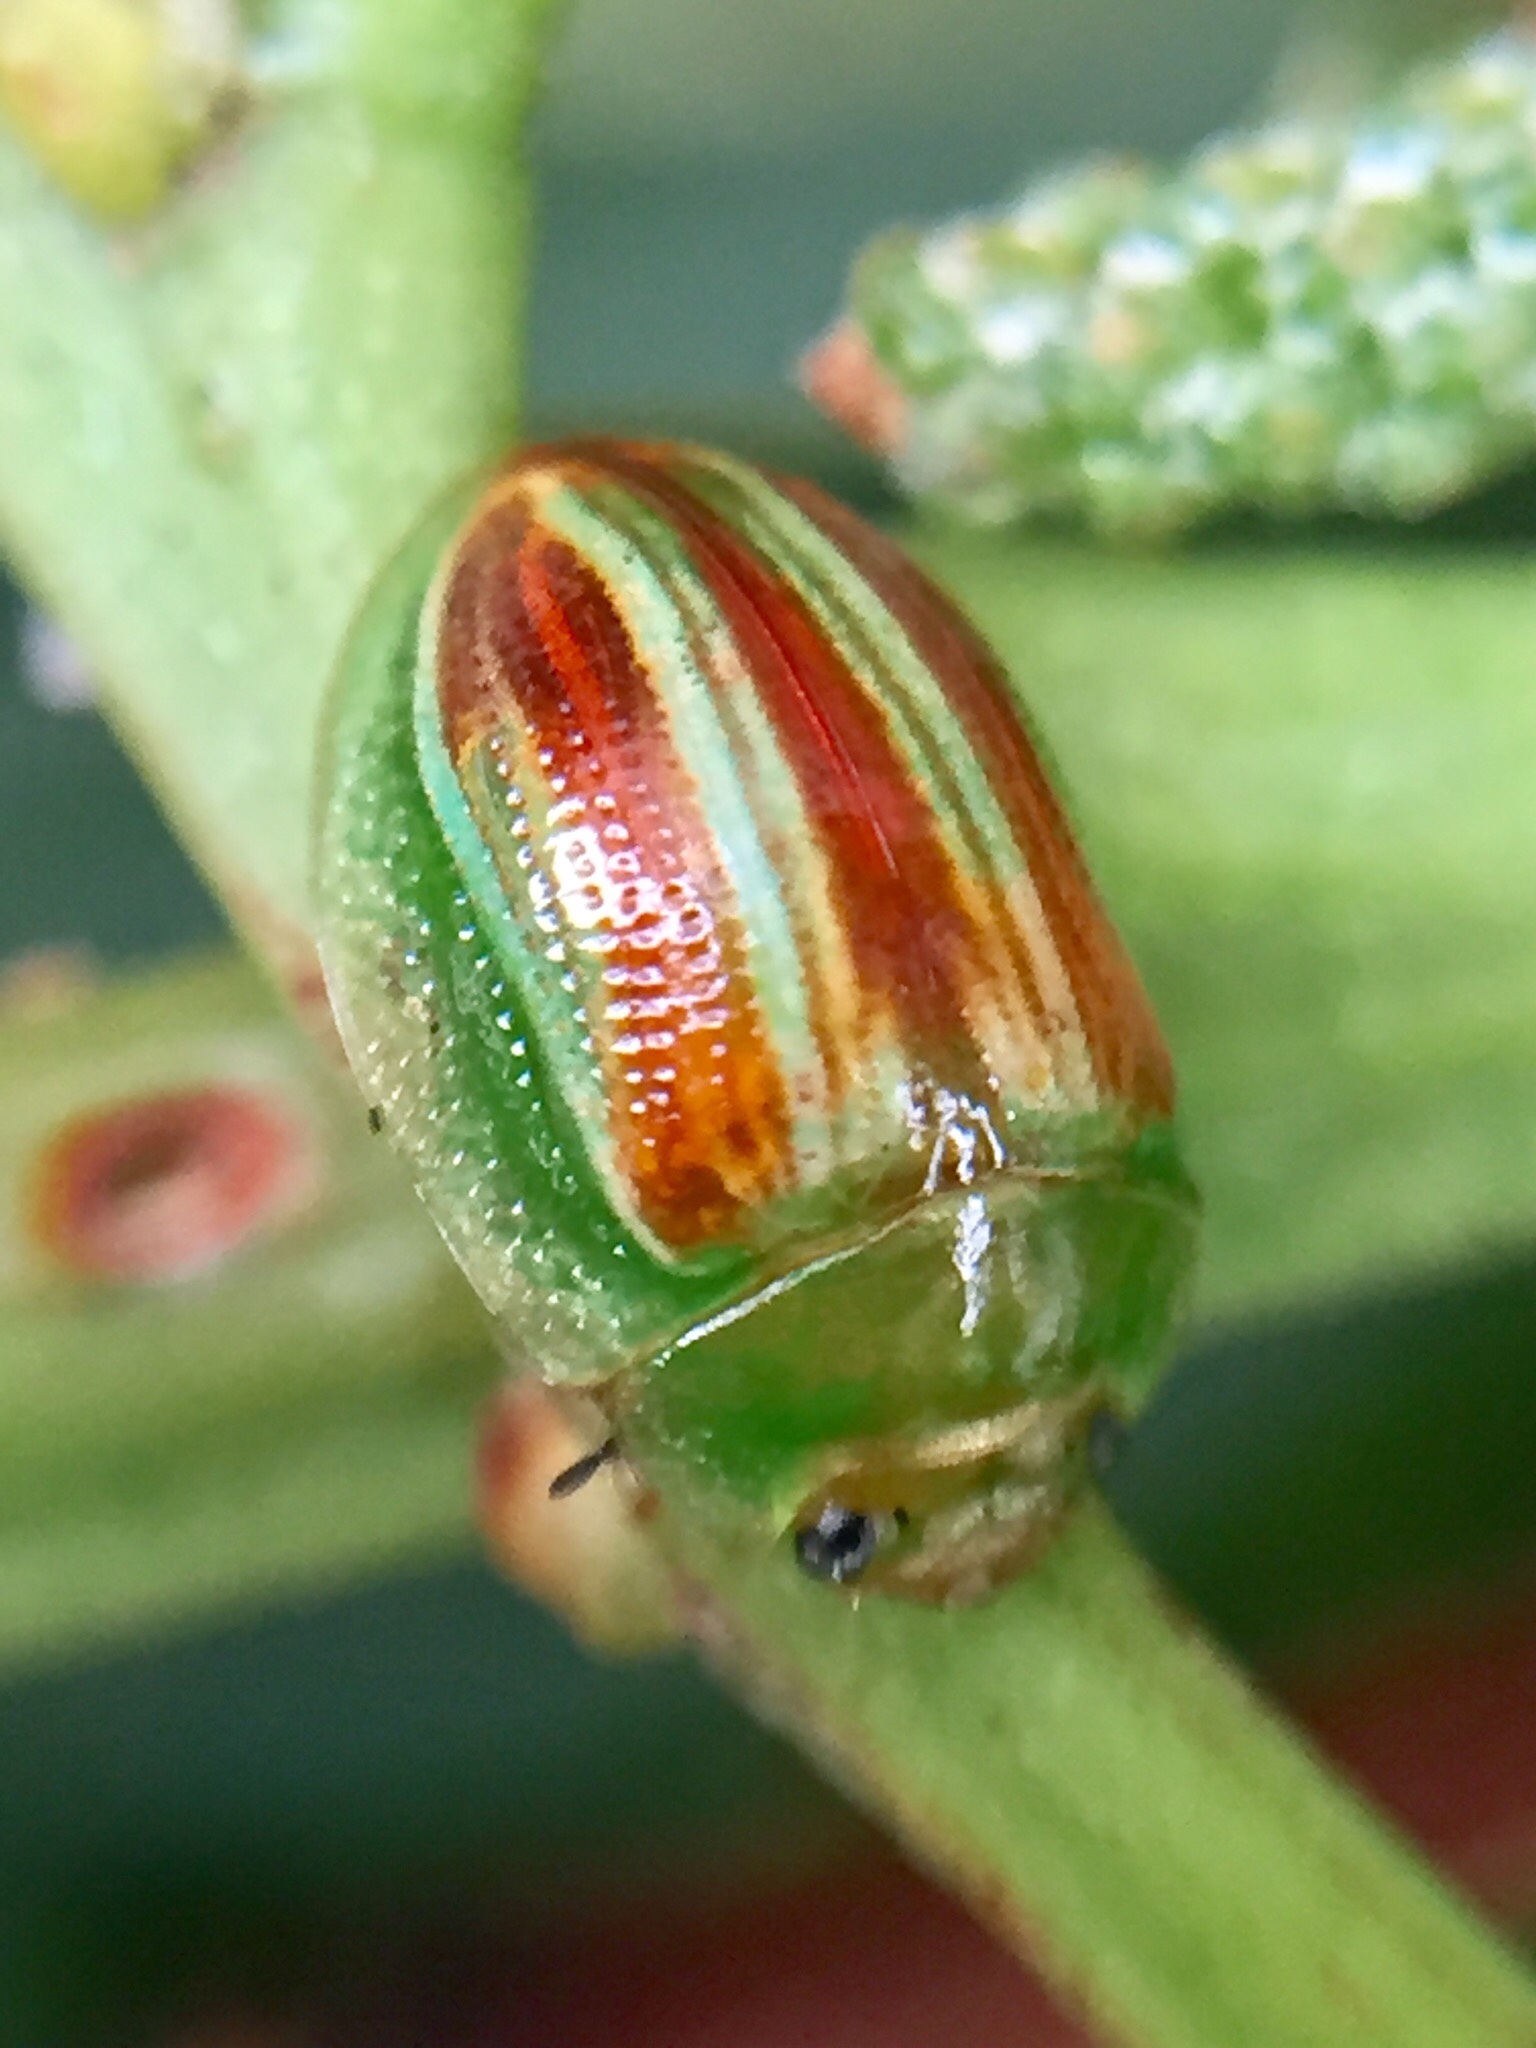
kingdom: Animalia
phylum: Arthropoda
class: Insecta
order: Coleoptera
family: Chrysomelidae
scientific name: Chrysomelidae
